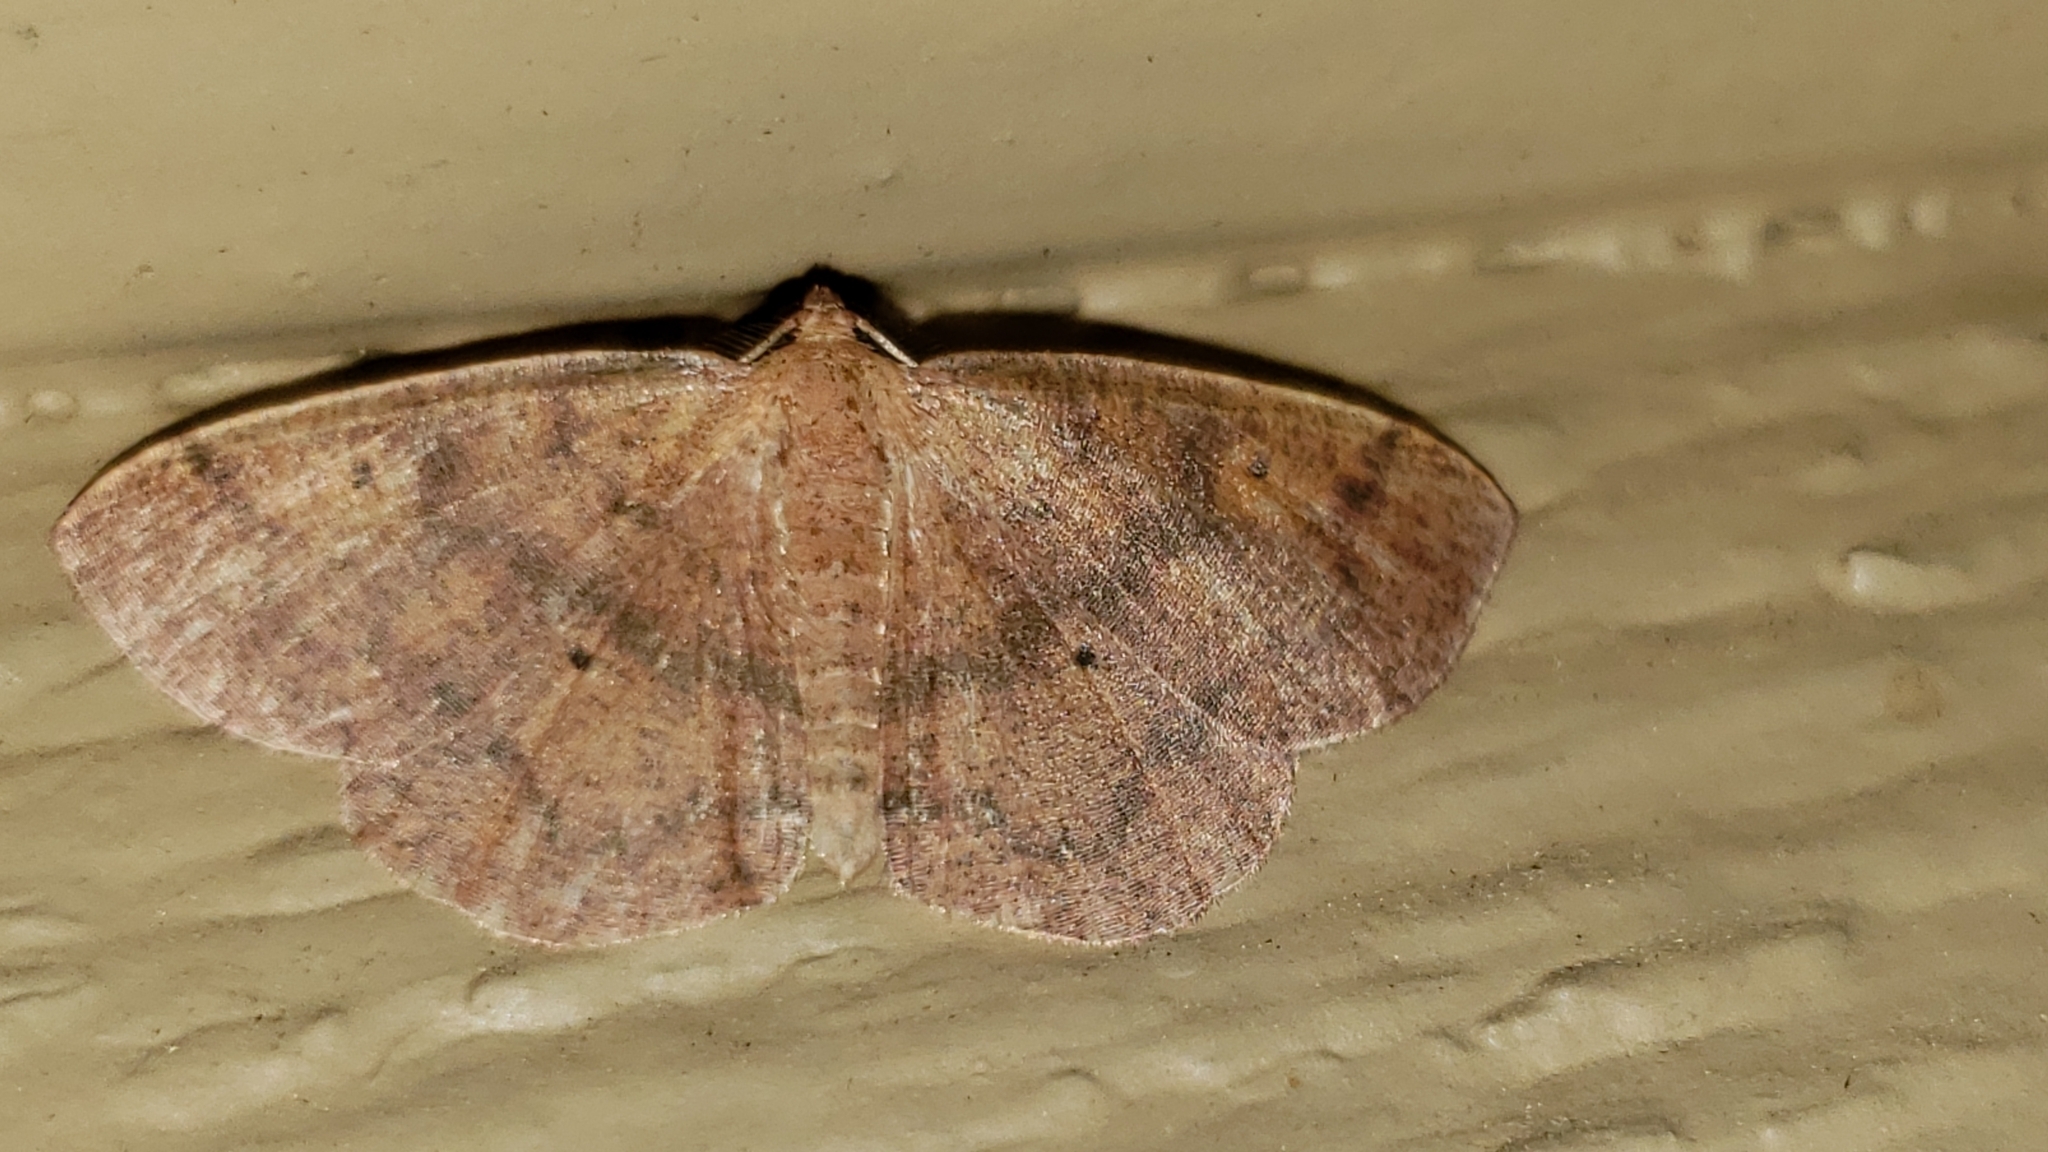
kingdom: Animalia
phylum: Arthropoda
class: Insecta
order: Lepidoptera
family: Geometridae
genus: Ilexia
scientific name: Ilexia intractata
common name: Black-dotted ruddy moth
